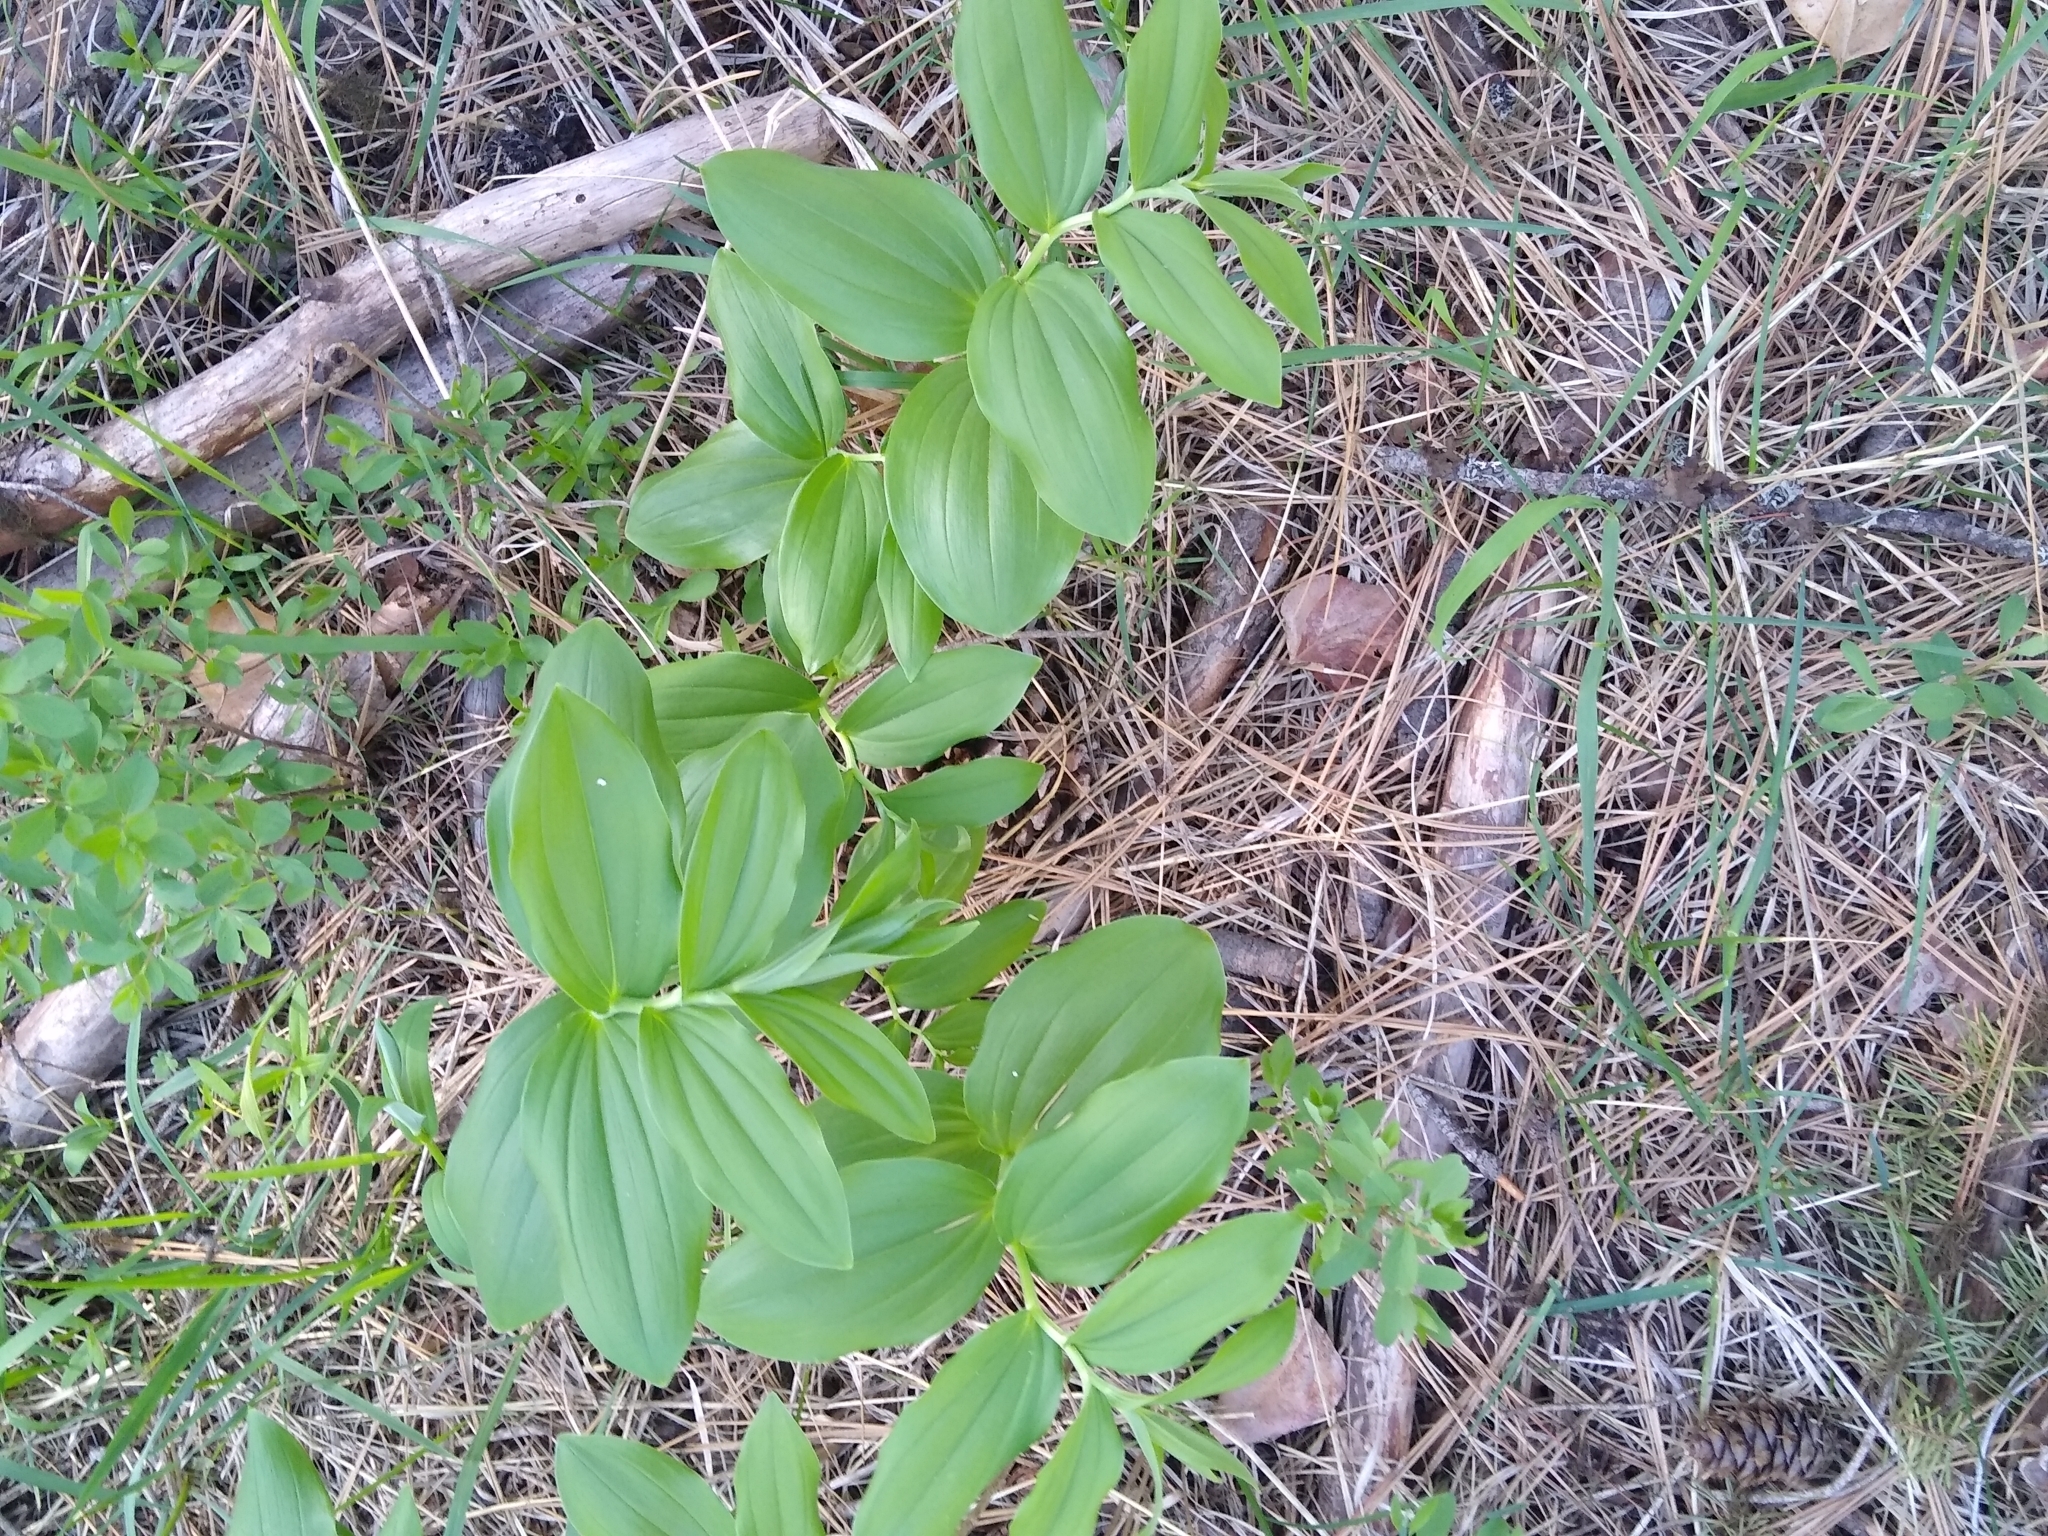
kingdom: Plantae
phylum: Tracheophyta
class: Liliopsida
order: Asparagales
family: Asparagaceae
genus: Maianthemum
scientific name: Maianthemum racemosum
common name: False spikenard
